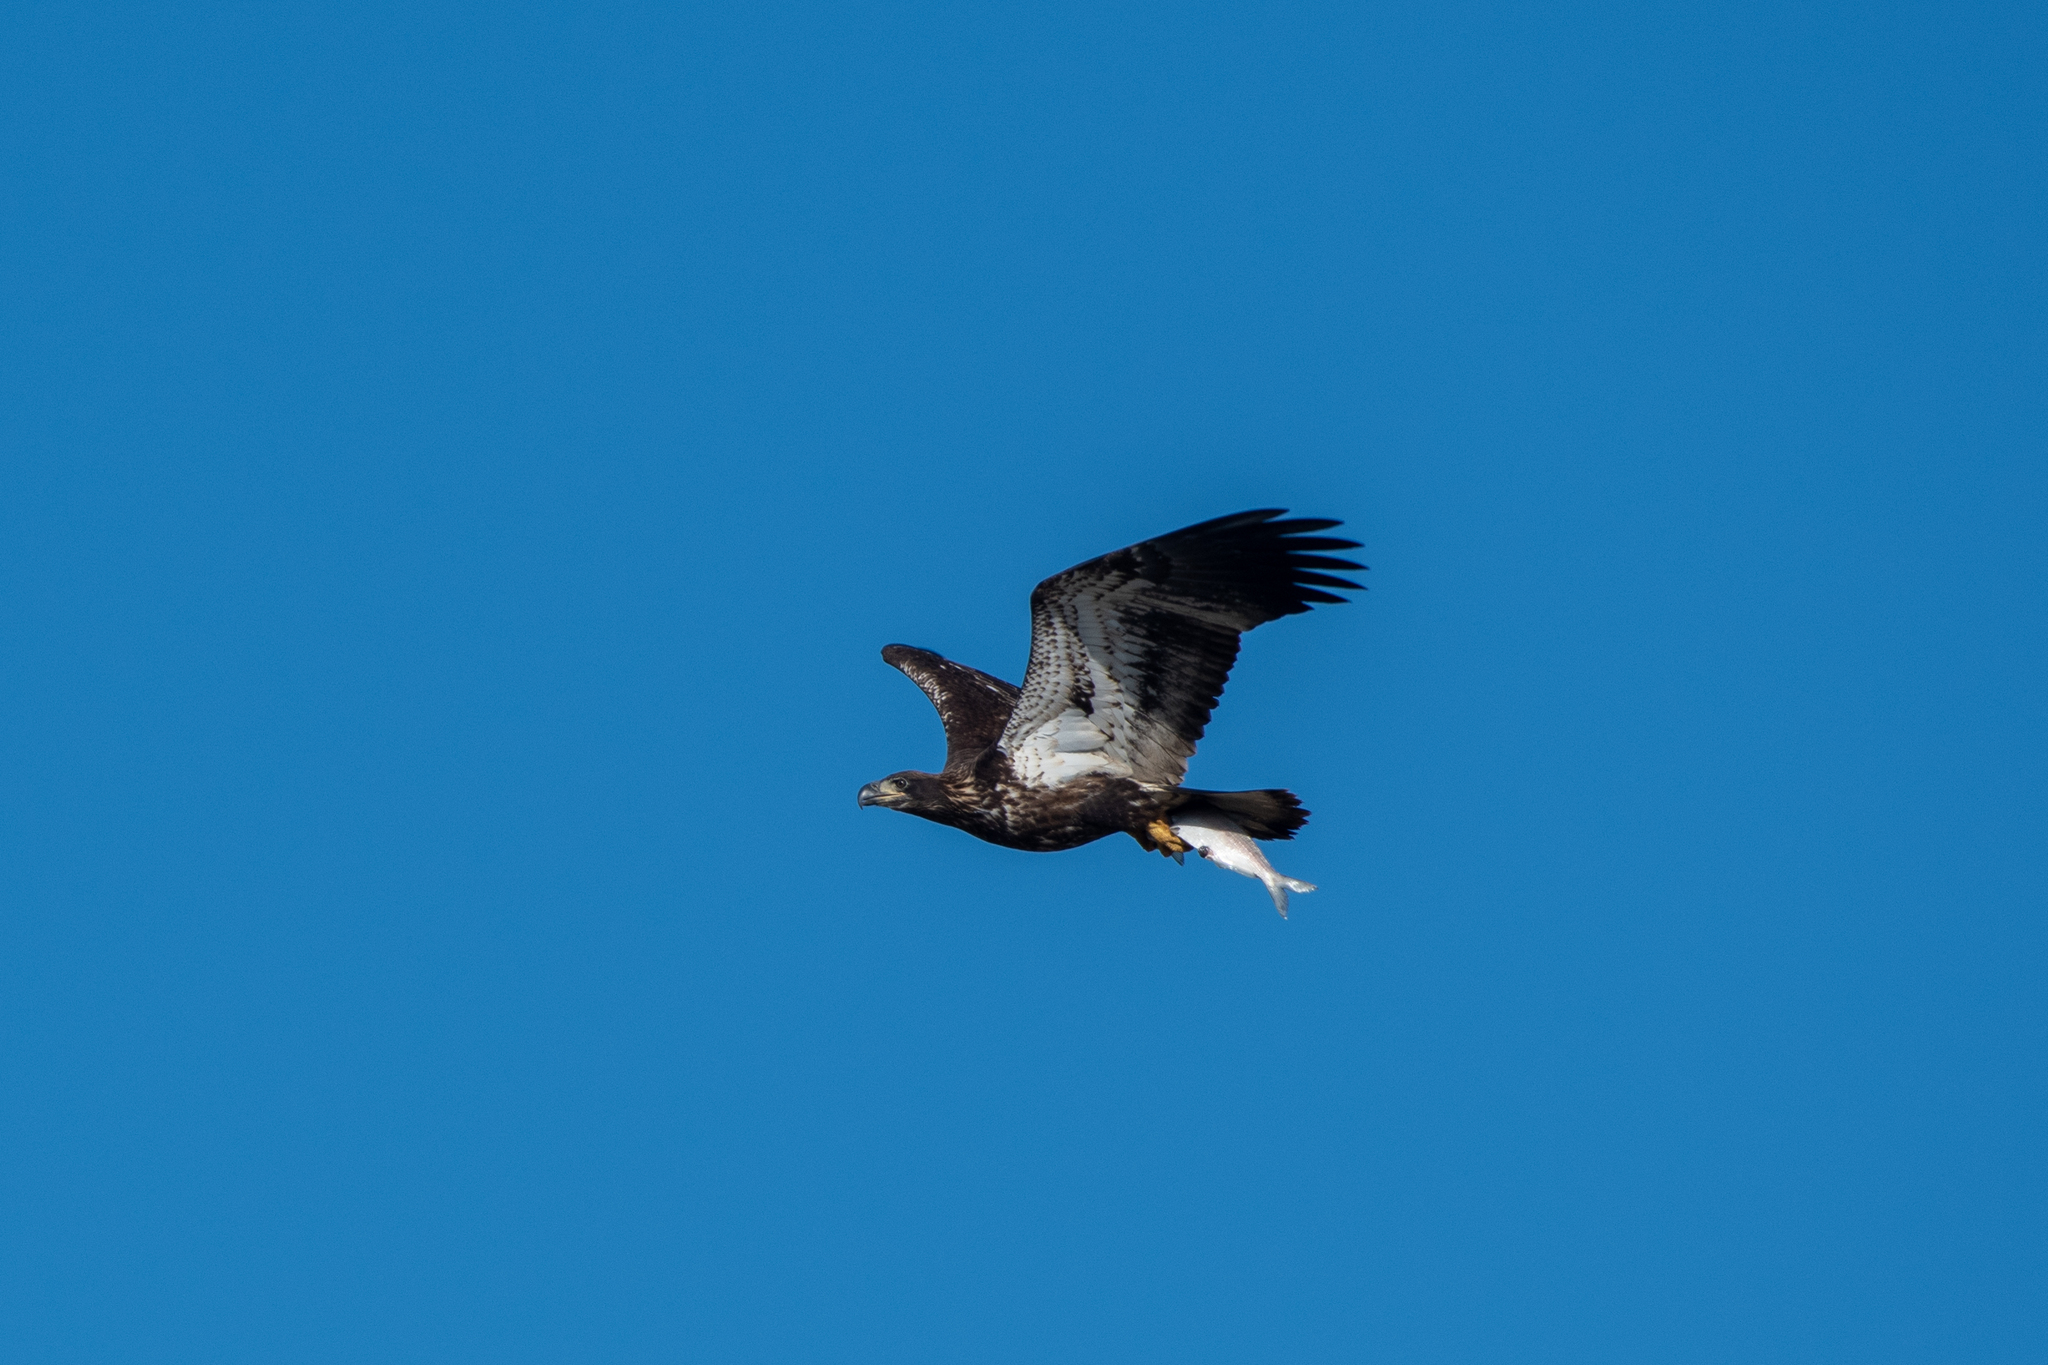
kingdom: Animalia
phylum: Chordata
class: Aves
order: Accipitriformes
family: Accipitridae
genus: Haliaeetus
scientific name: Haliaeetus leucocephalus
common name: Bald eagle
